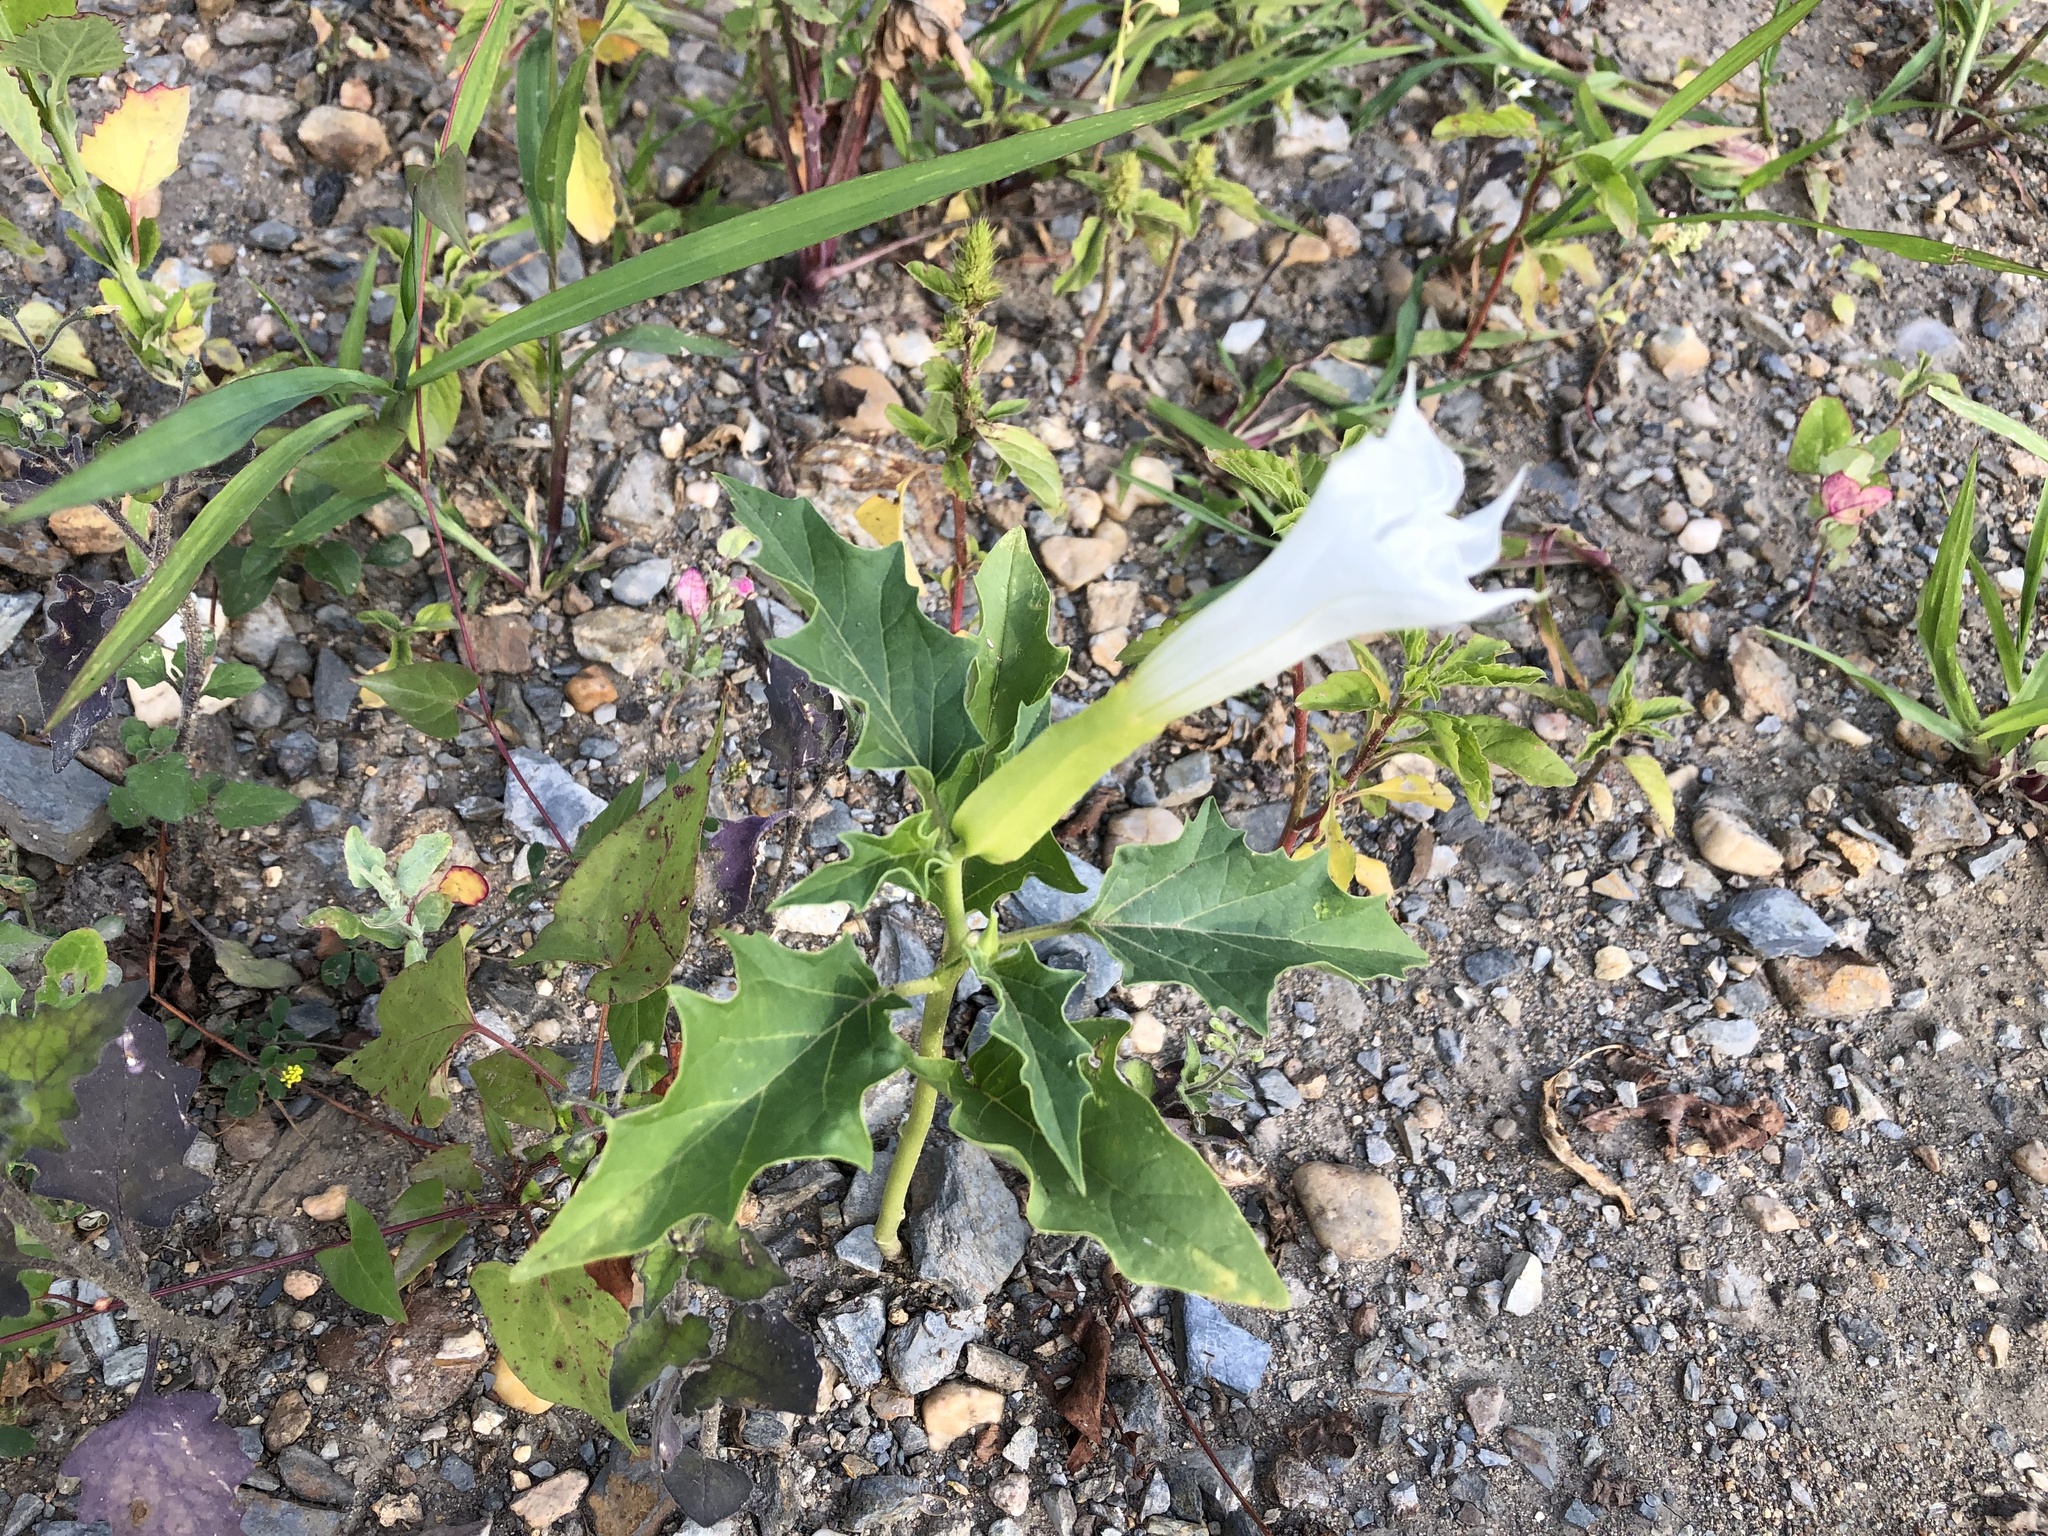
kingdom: Plantae
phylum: Tracheophyta
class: Magnoliopsida
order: Solanales
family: Solanaceae
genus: Datura
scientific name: Datura stramonium
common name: Thorn-apple
